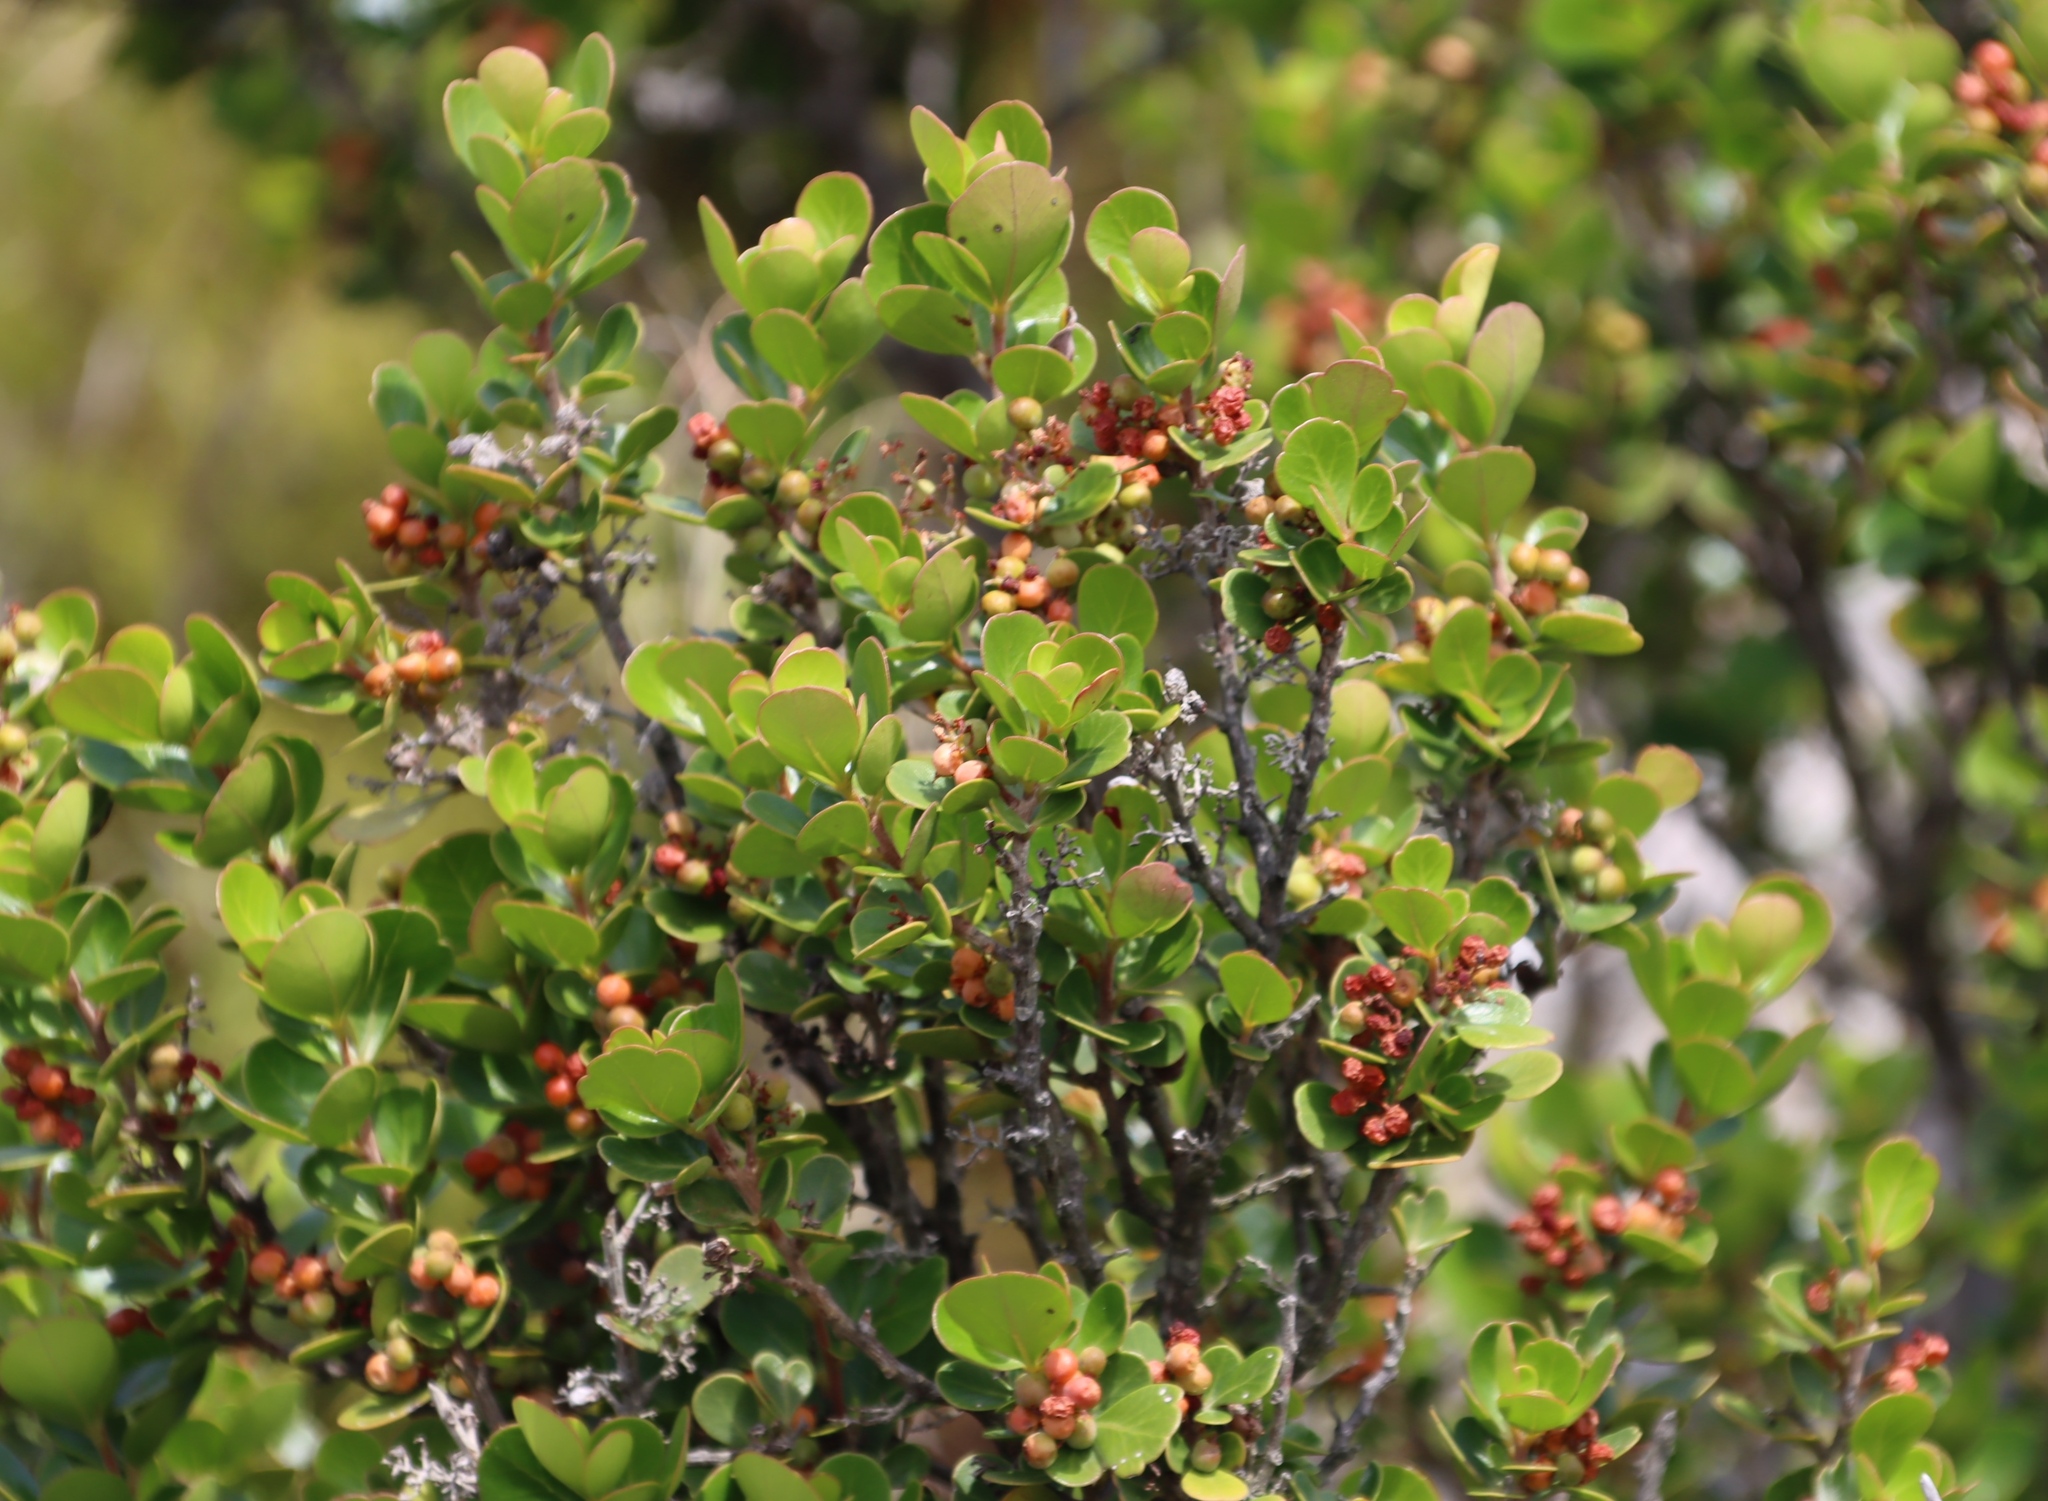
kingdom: Plantae
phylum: Tracheophyta
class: Magnoliopsida
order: Sapindales
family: Anacardiaceae
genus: Searsia
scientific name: Searsia lucida
